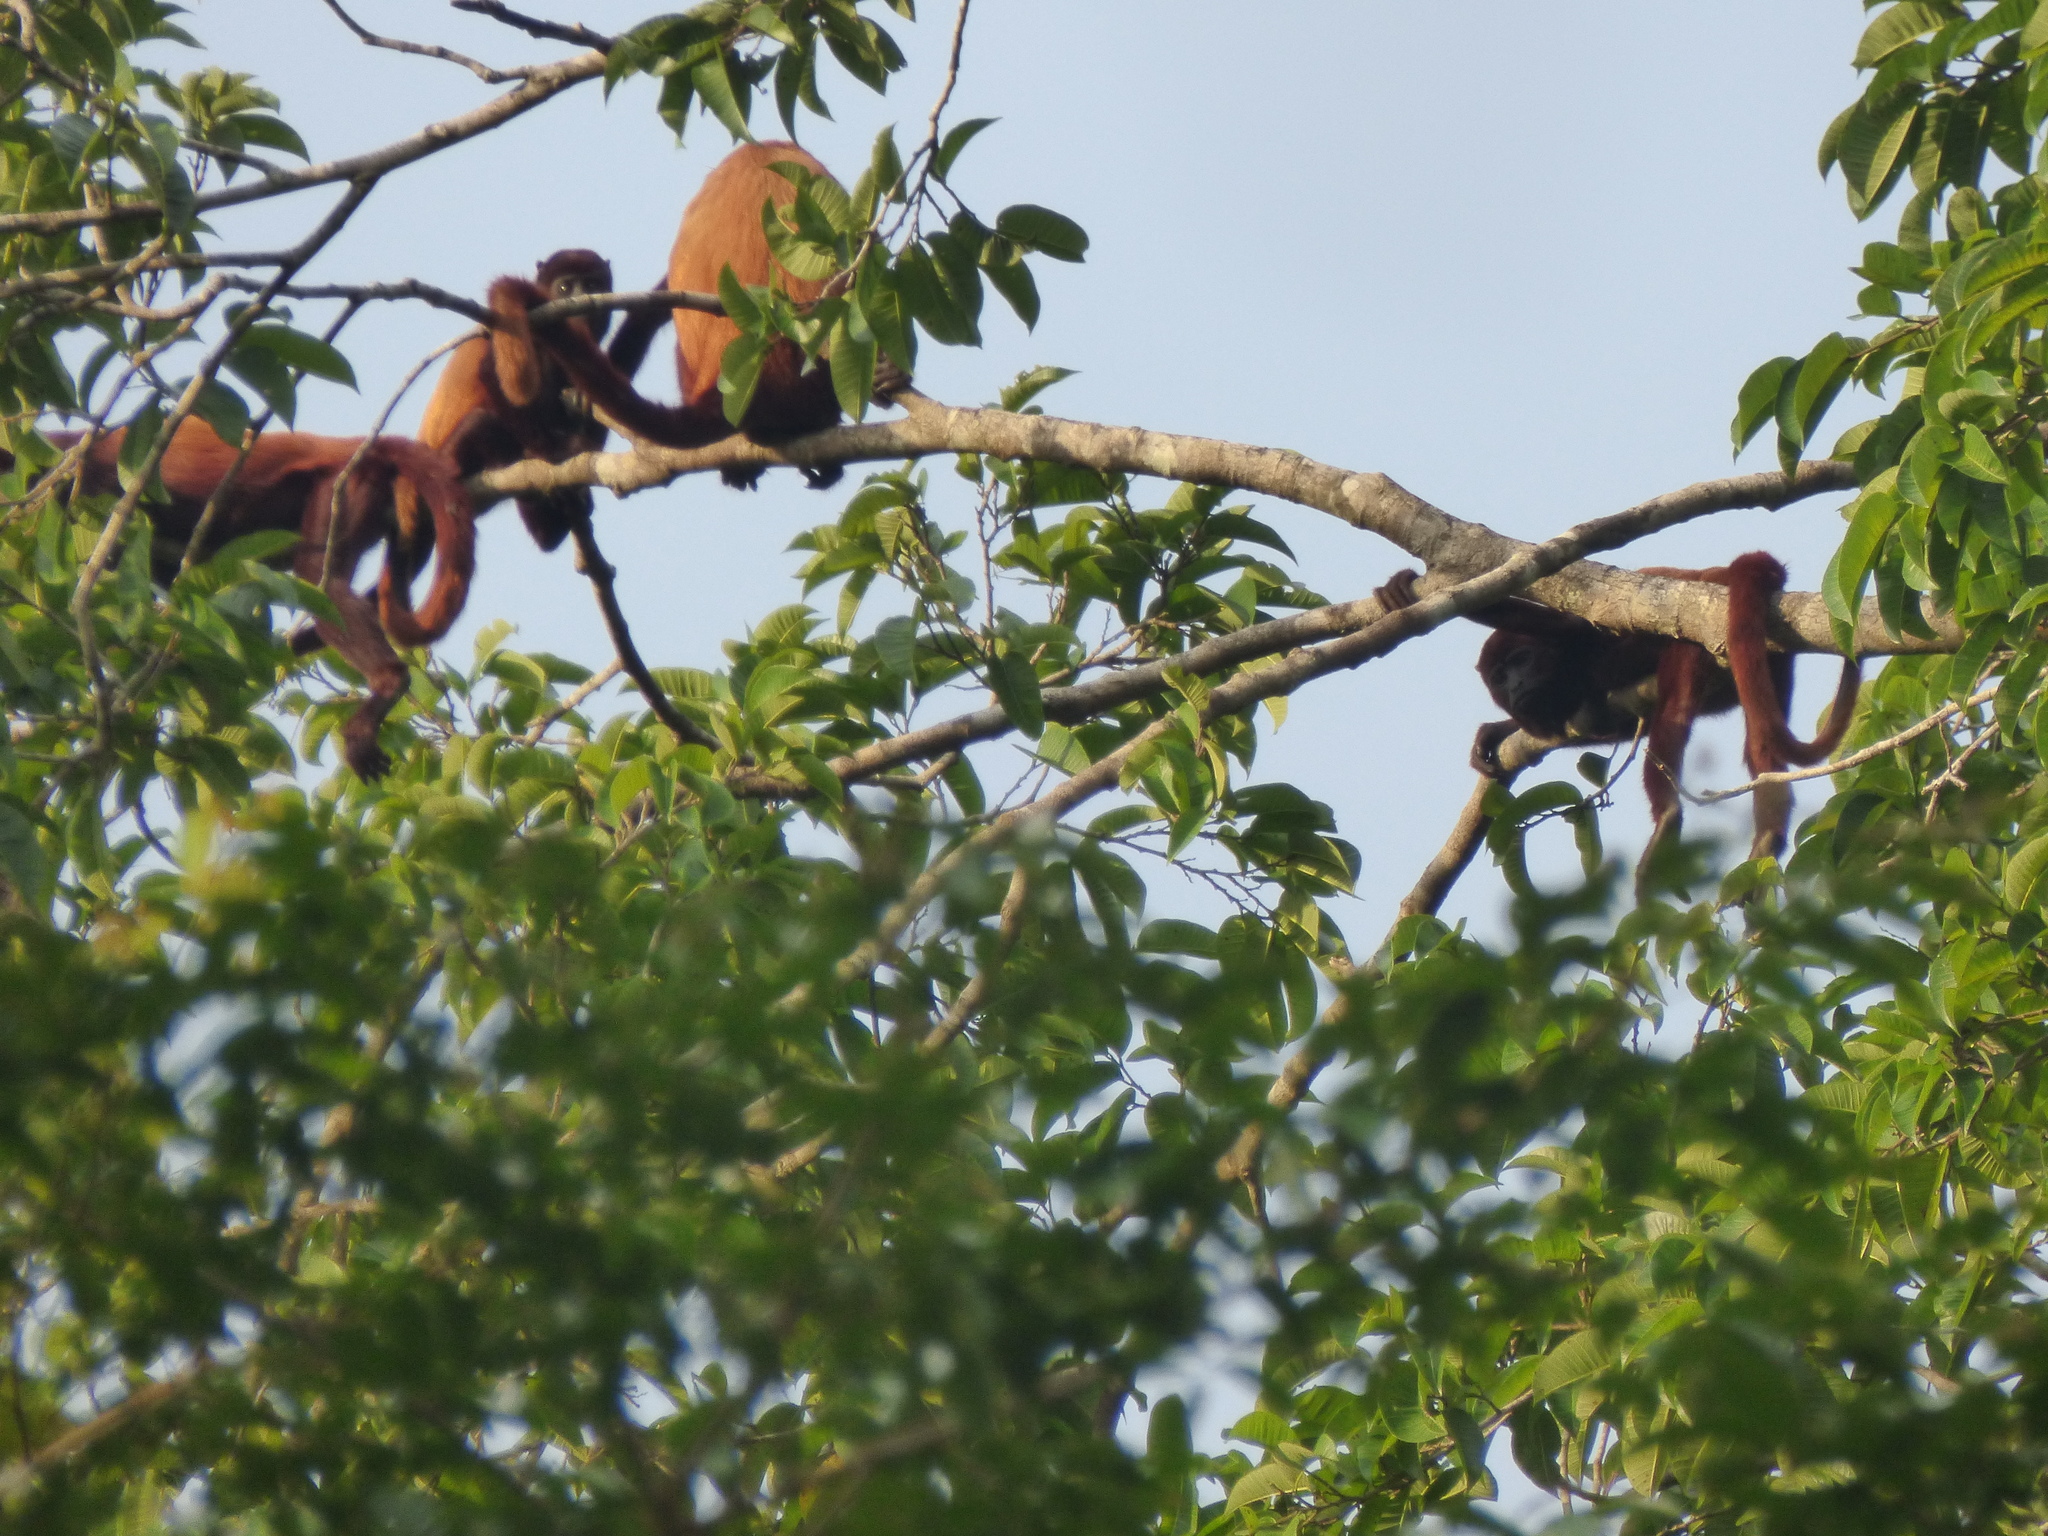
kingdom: Animalia
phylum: Chordata
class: Mammalia
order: Primates
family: Atelidae
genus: Alouatta
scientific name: Alouatta seniculus
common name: Venezuelan red howler
